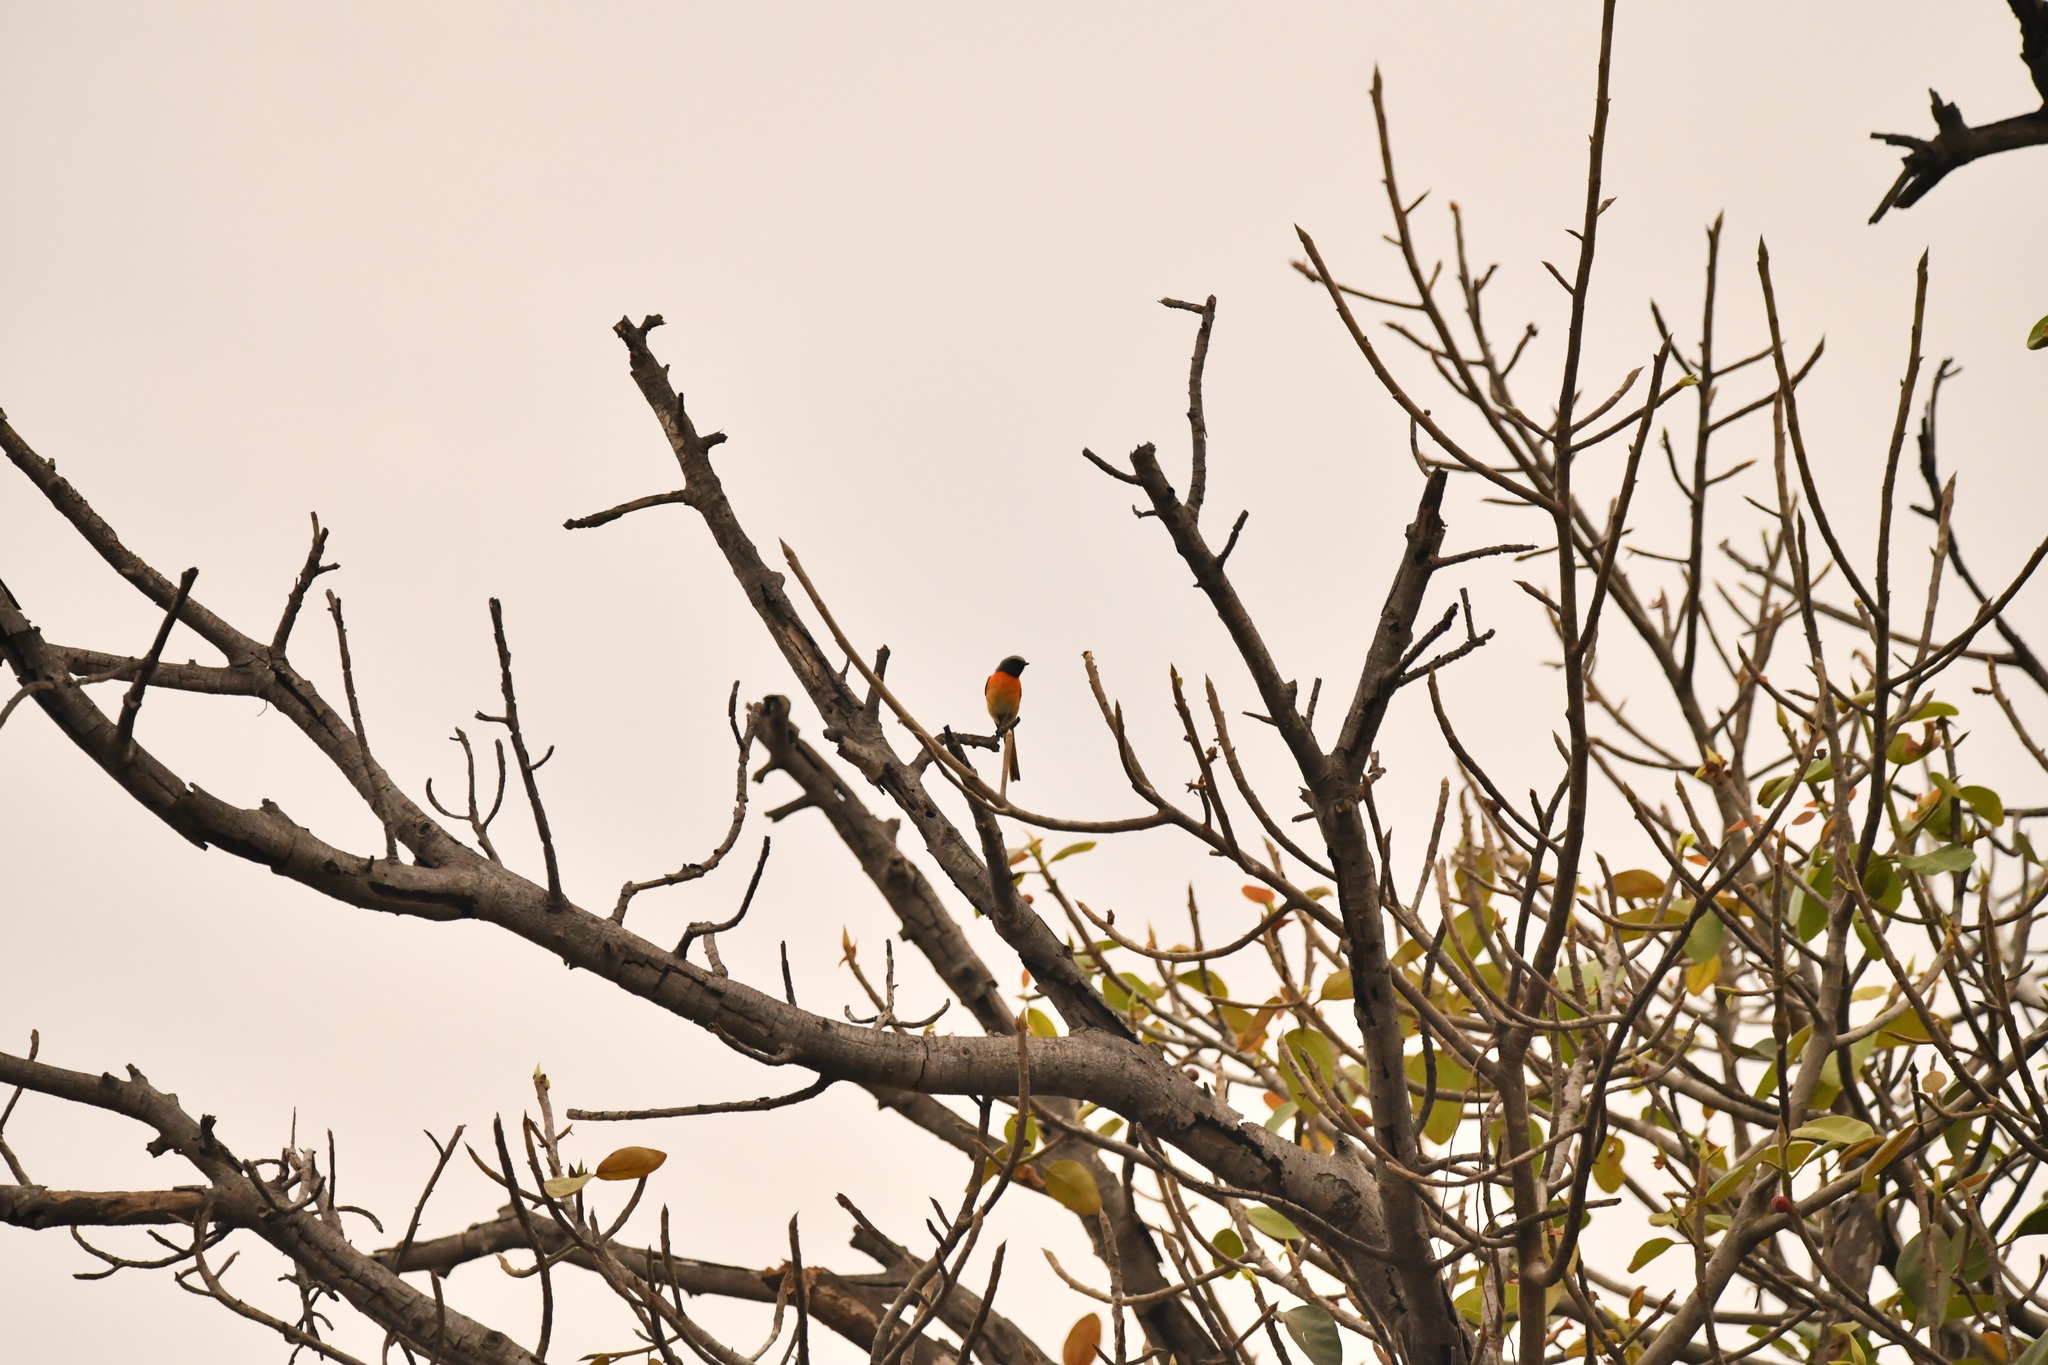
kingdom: Animalia
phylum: Chordata
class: Aves
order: Passeriformes
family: Campephagidae
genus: Pericrocotus
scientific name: Pericrocotus cinnamomeus
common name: Small minivet
